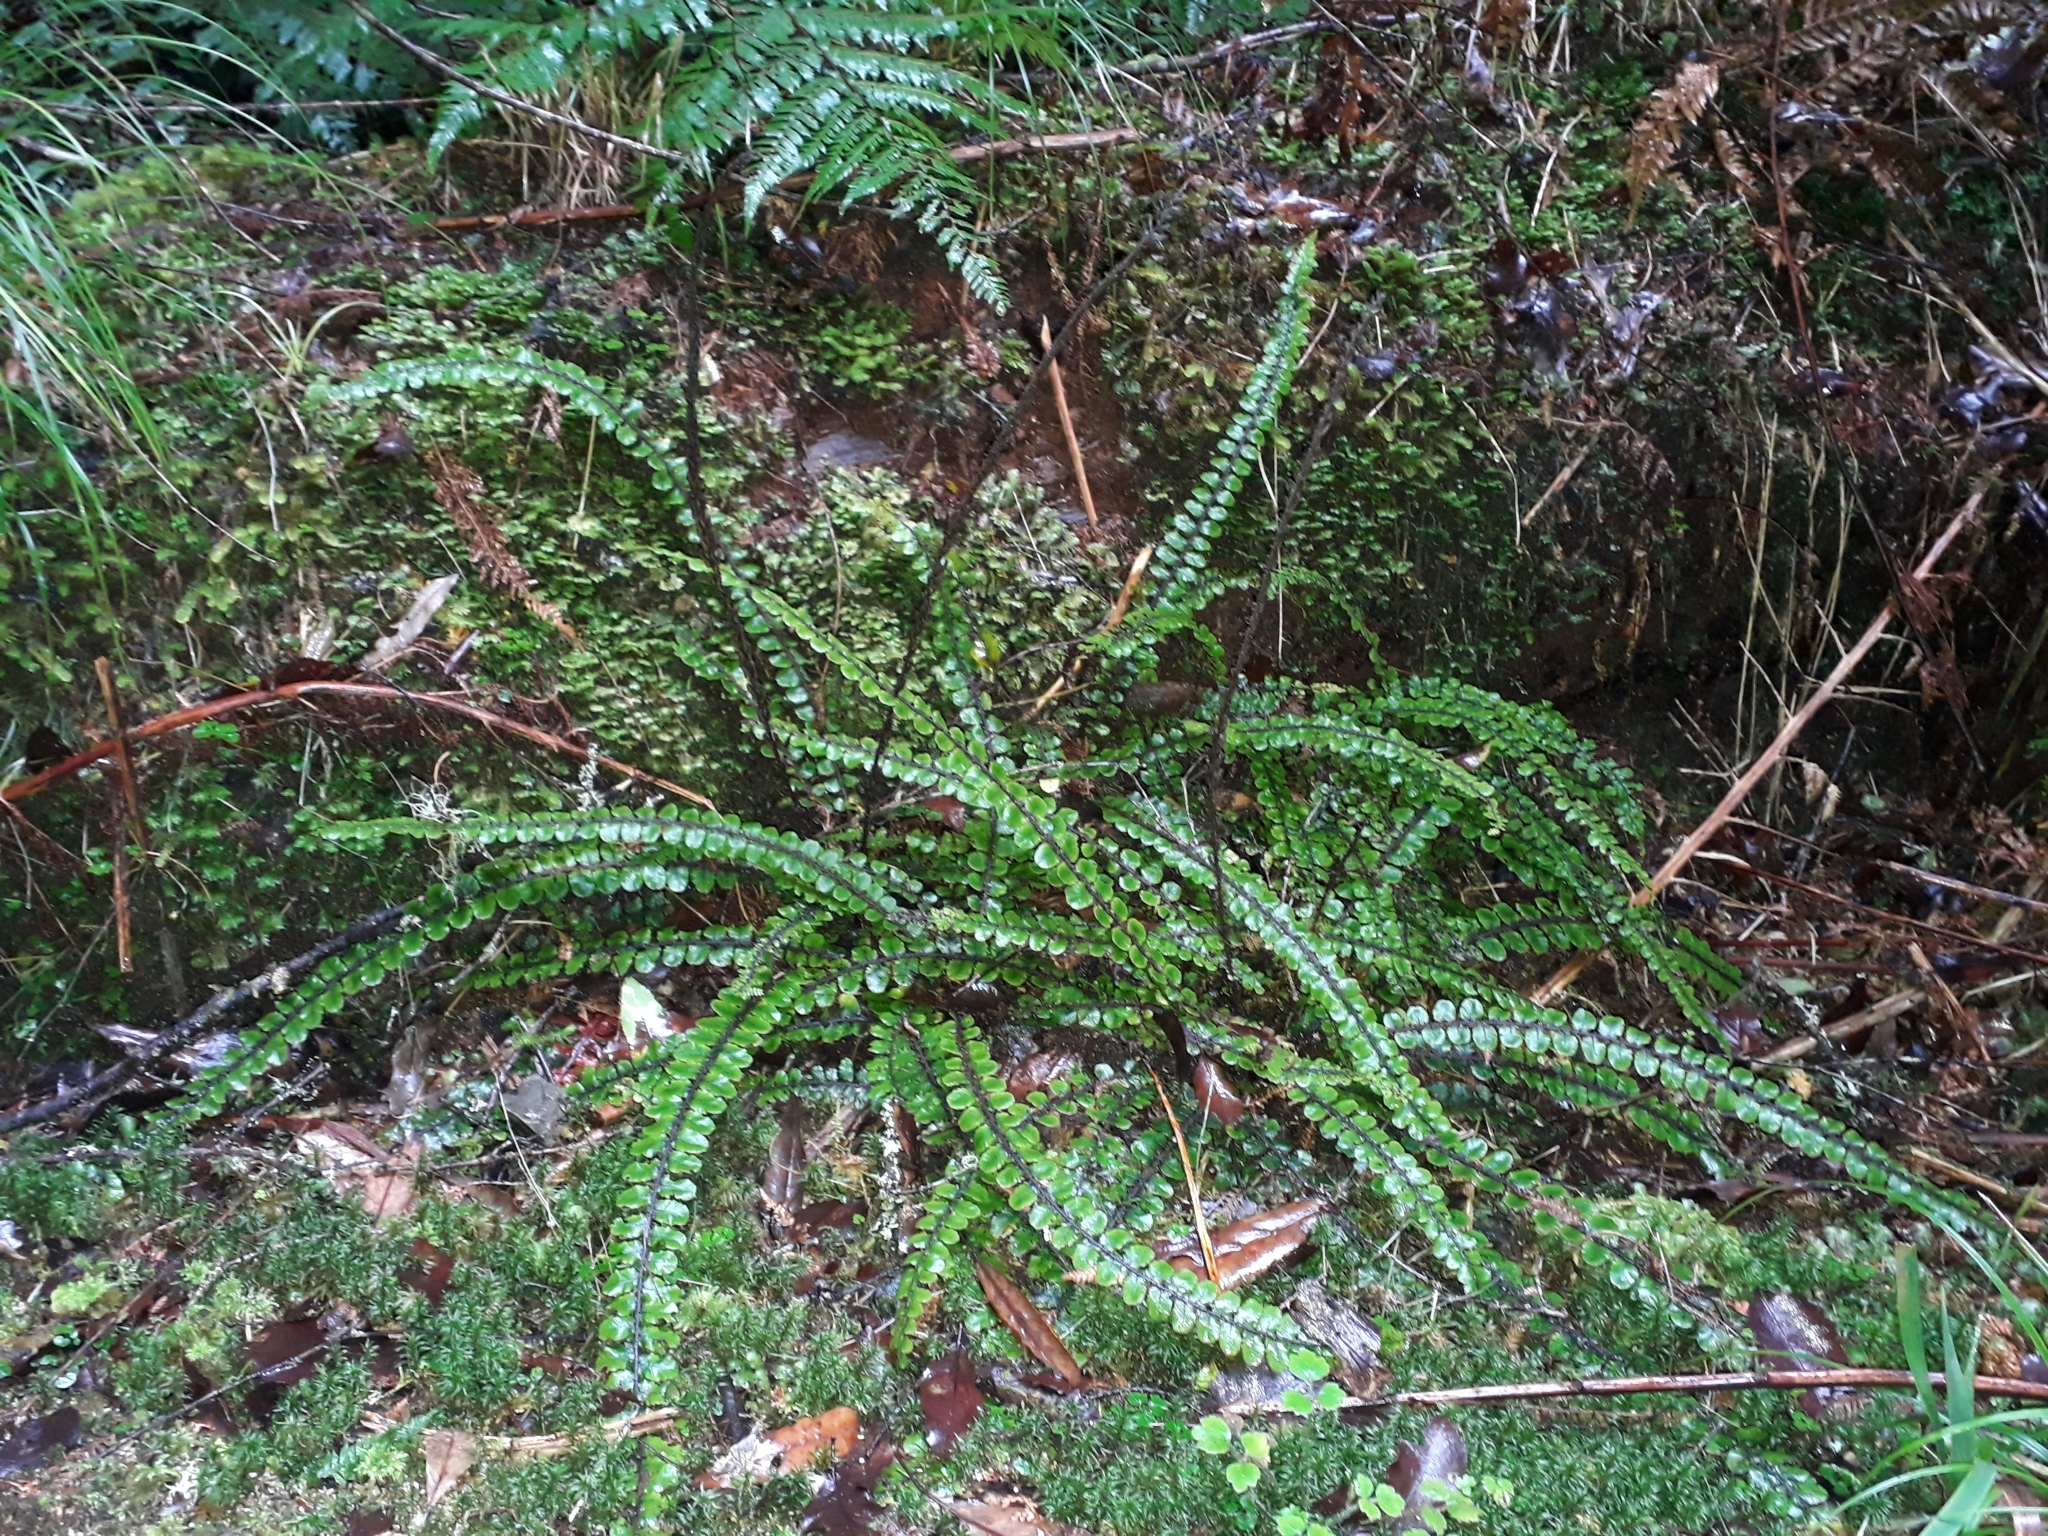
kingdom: Plantae
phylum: Tracheophyta
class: Polypodiopsida
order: Polypodiales
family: Blechnaceae
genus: Cranfillia
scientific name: Cranfillia fluviatilis
